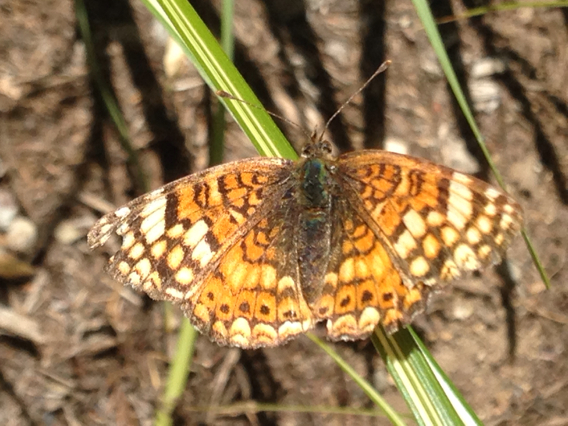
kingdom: Animalia
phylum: Arthropoda
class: Insecta
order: Lepidoptera
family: Nymphalidae
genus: Eresia
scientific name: Eresia aveyrona
